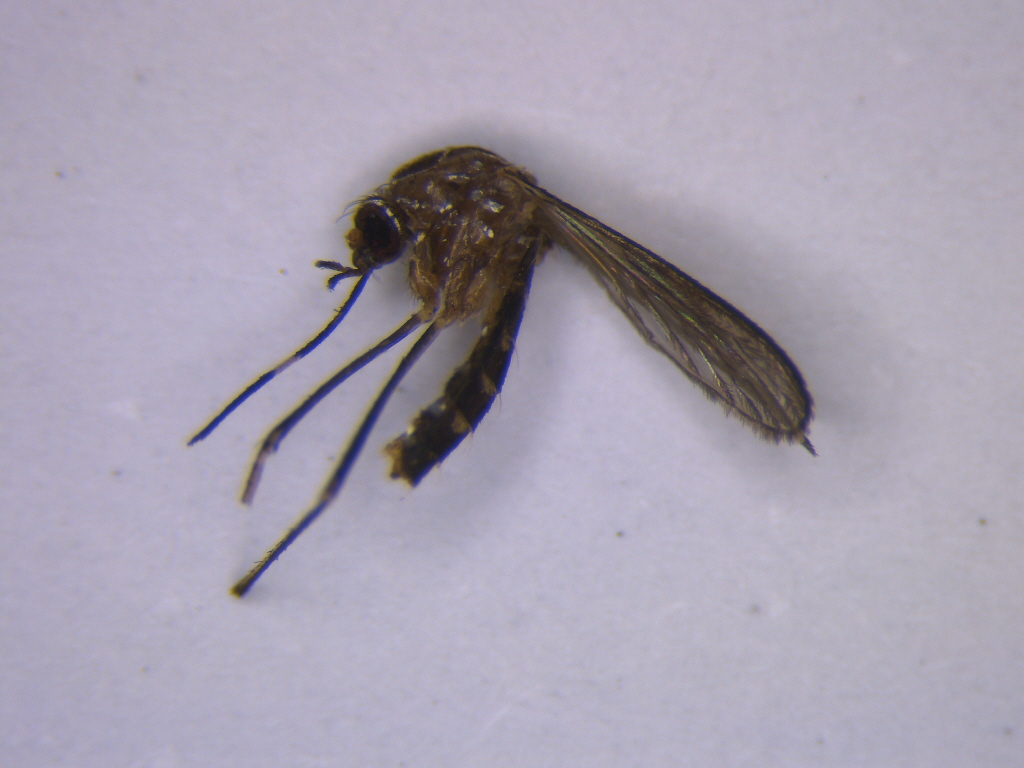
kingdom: Animalia
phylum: Arthropoda
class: Insecta
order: Diptera
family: Culicidae
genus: Aedes
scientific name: Aedes notoscriptus
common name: Australian backyard mosquito
